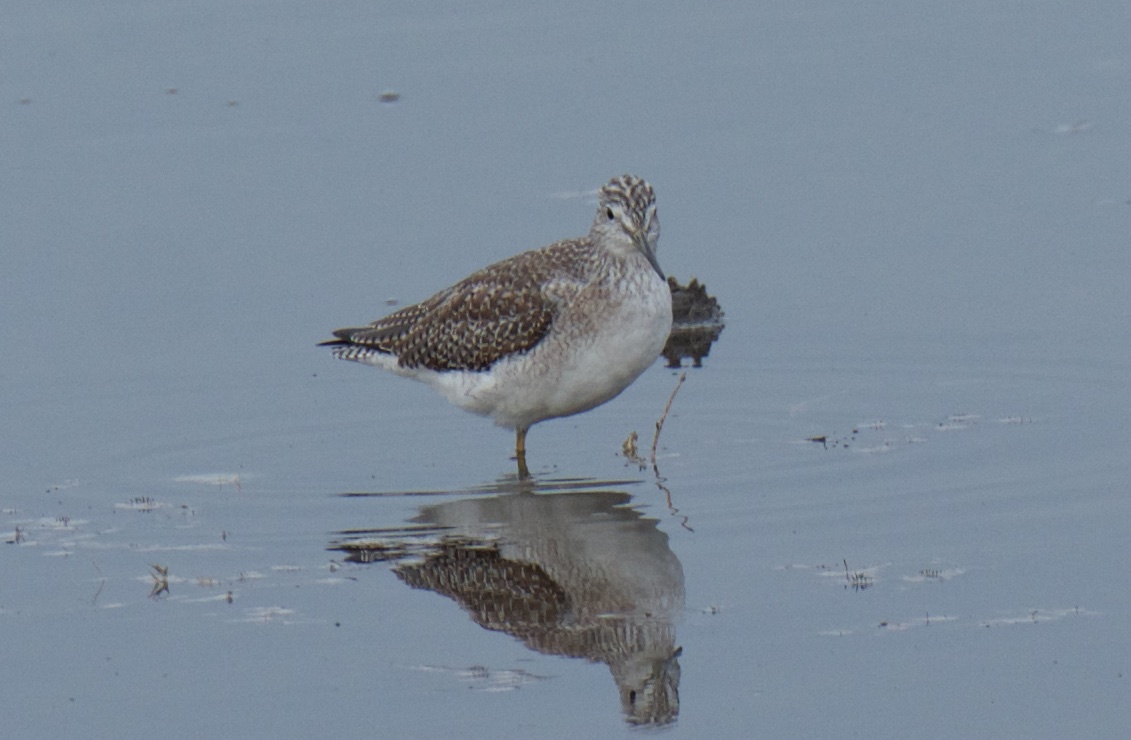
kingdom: Animalia
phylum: Chordata
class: Aves
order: Charadriiformes
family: Scolopacidae
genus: Tringa
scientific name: Tringa melanoleuca
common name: Greater yellowlegs
